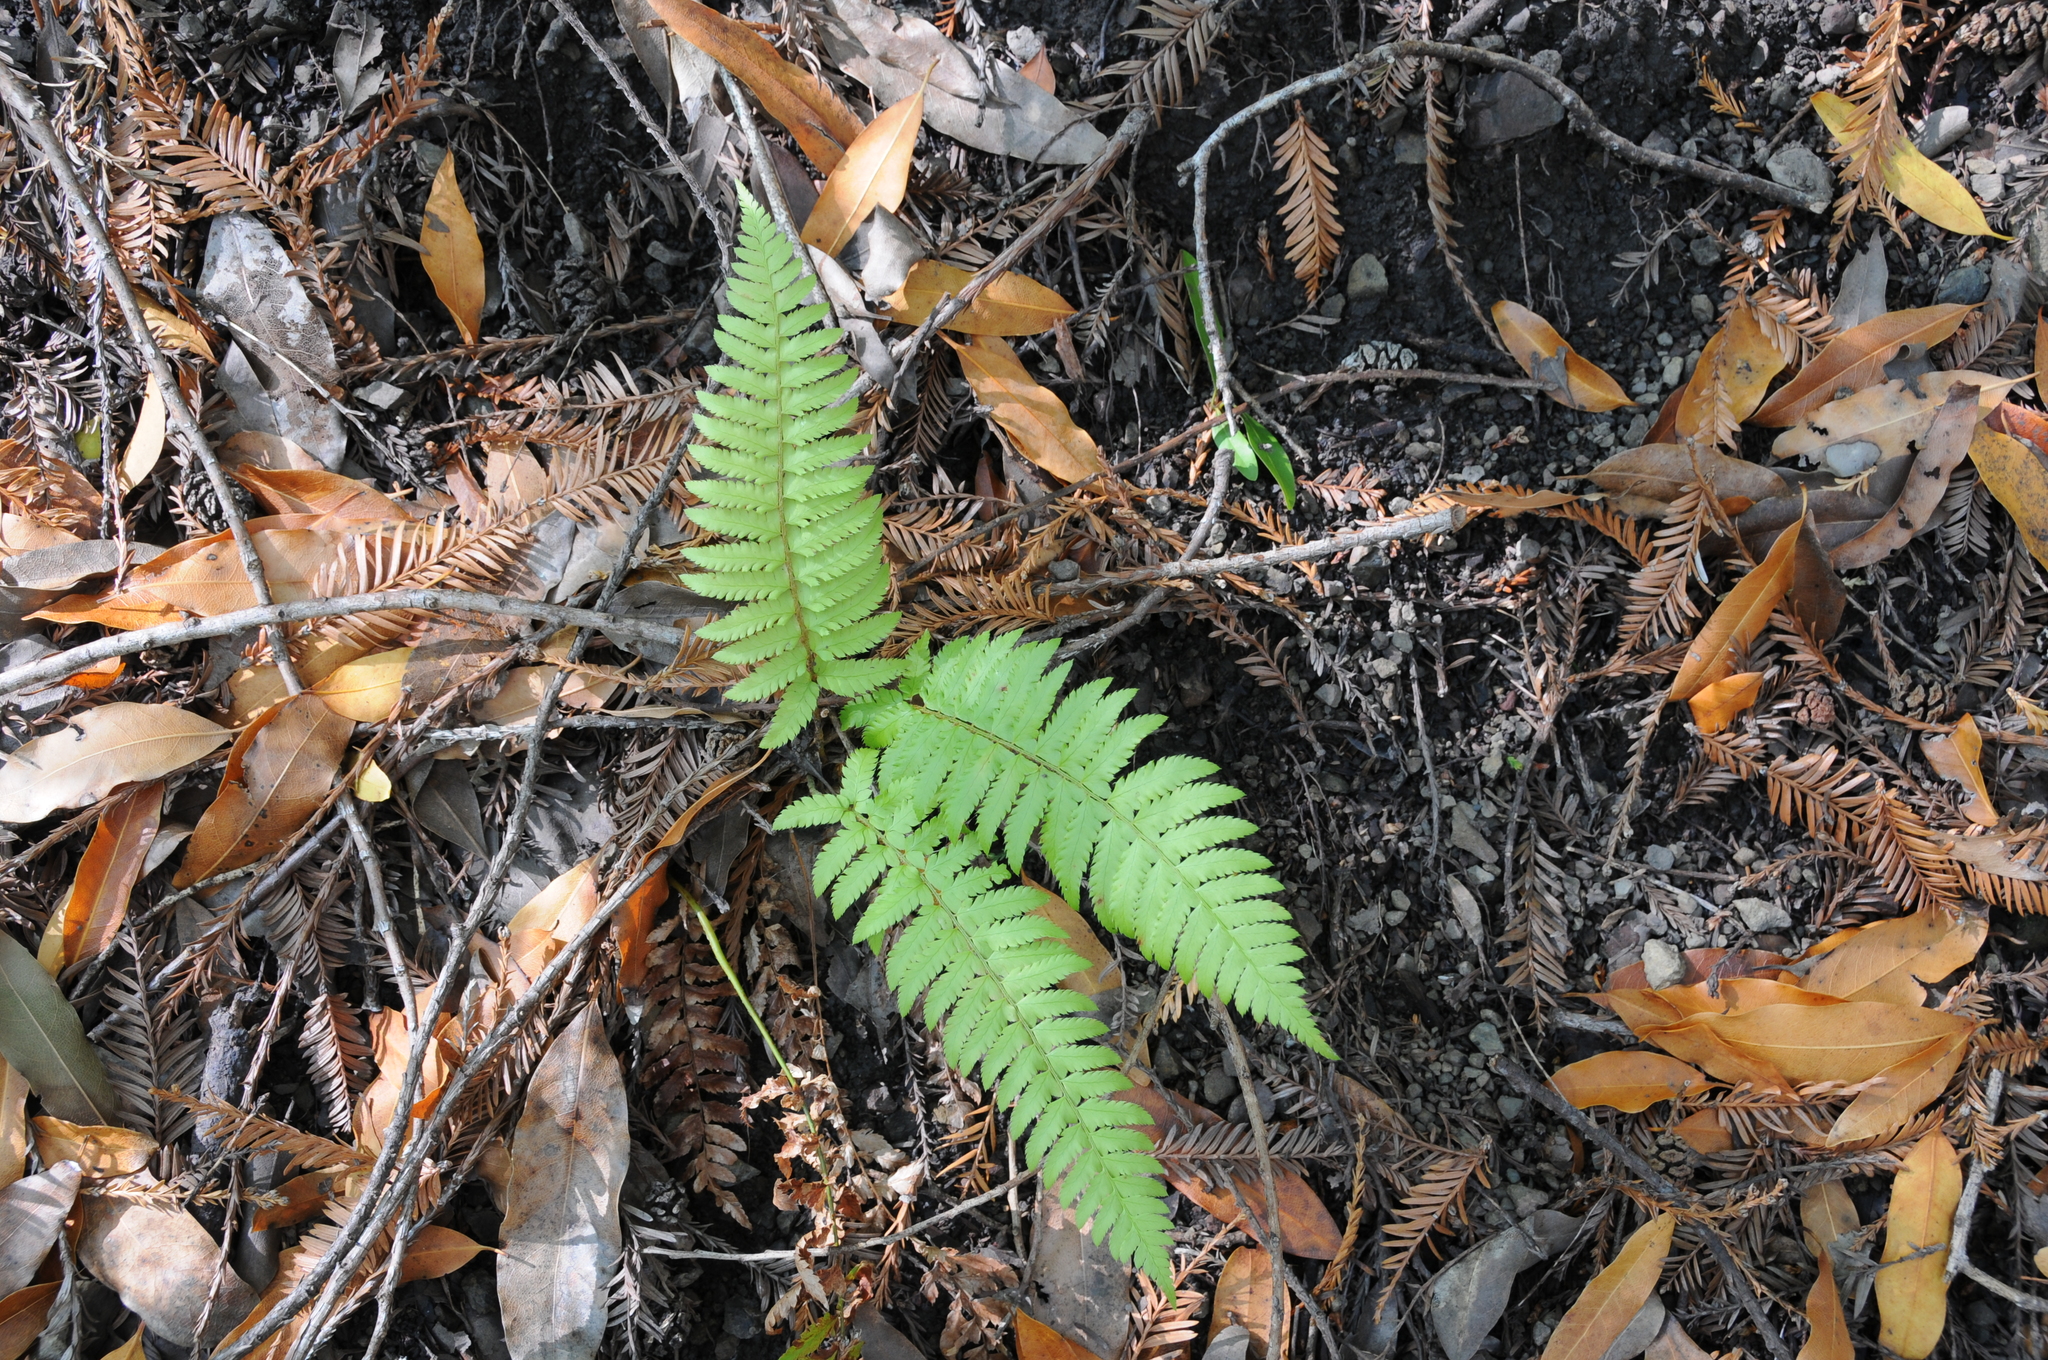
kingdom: Plantae
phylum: Tracheophyta
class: Polypodiopsida
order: Polypodiales
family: Dryopteridaceae
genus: Polystichum
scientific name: Polystichum californicum
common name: California sword fern
